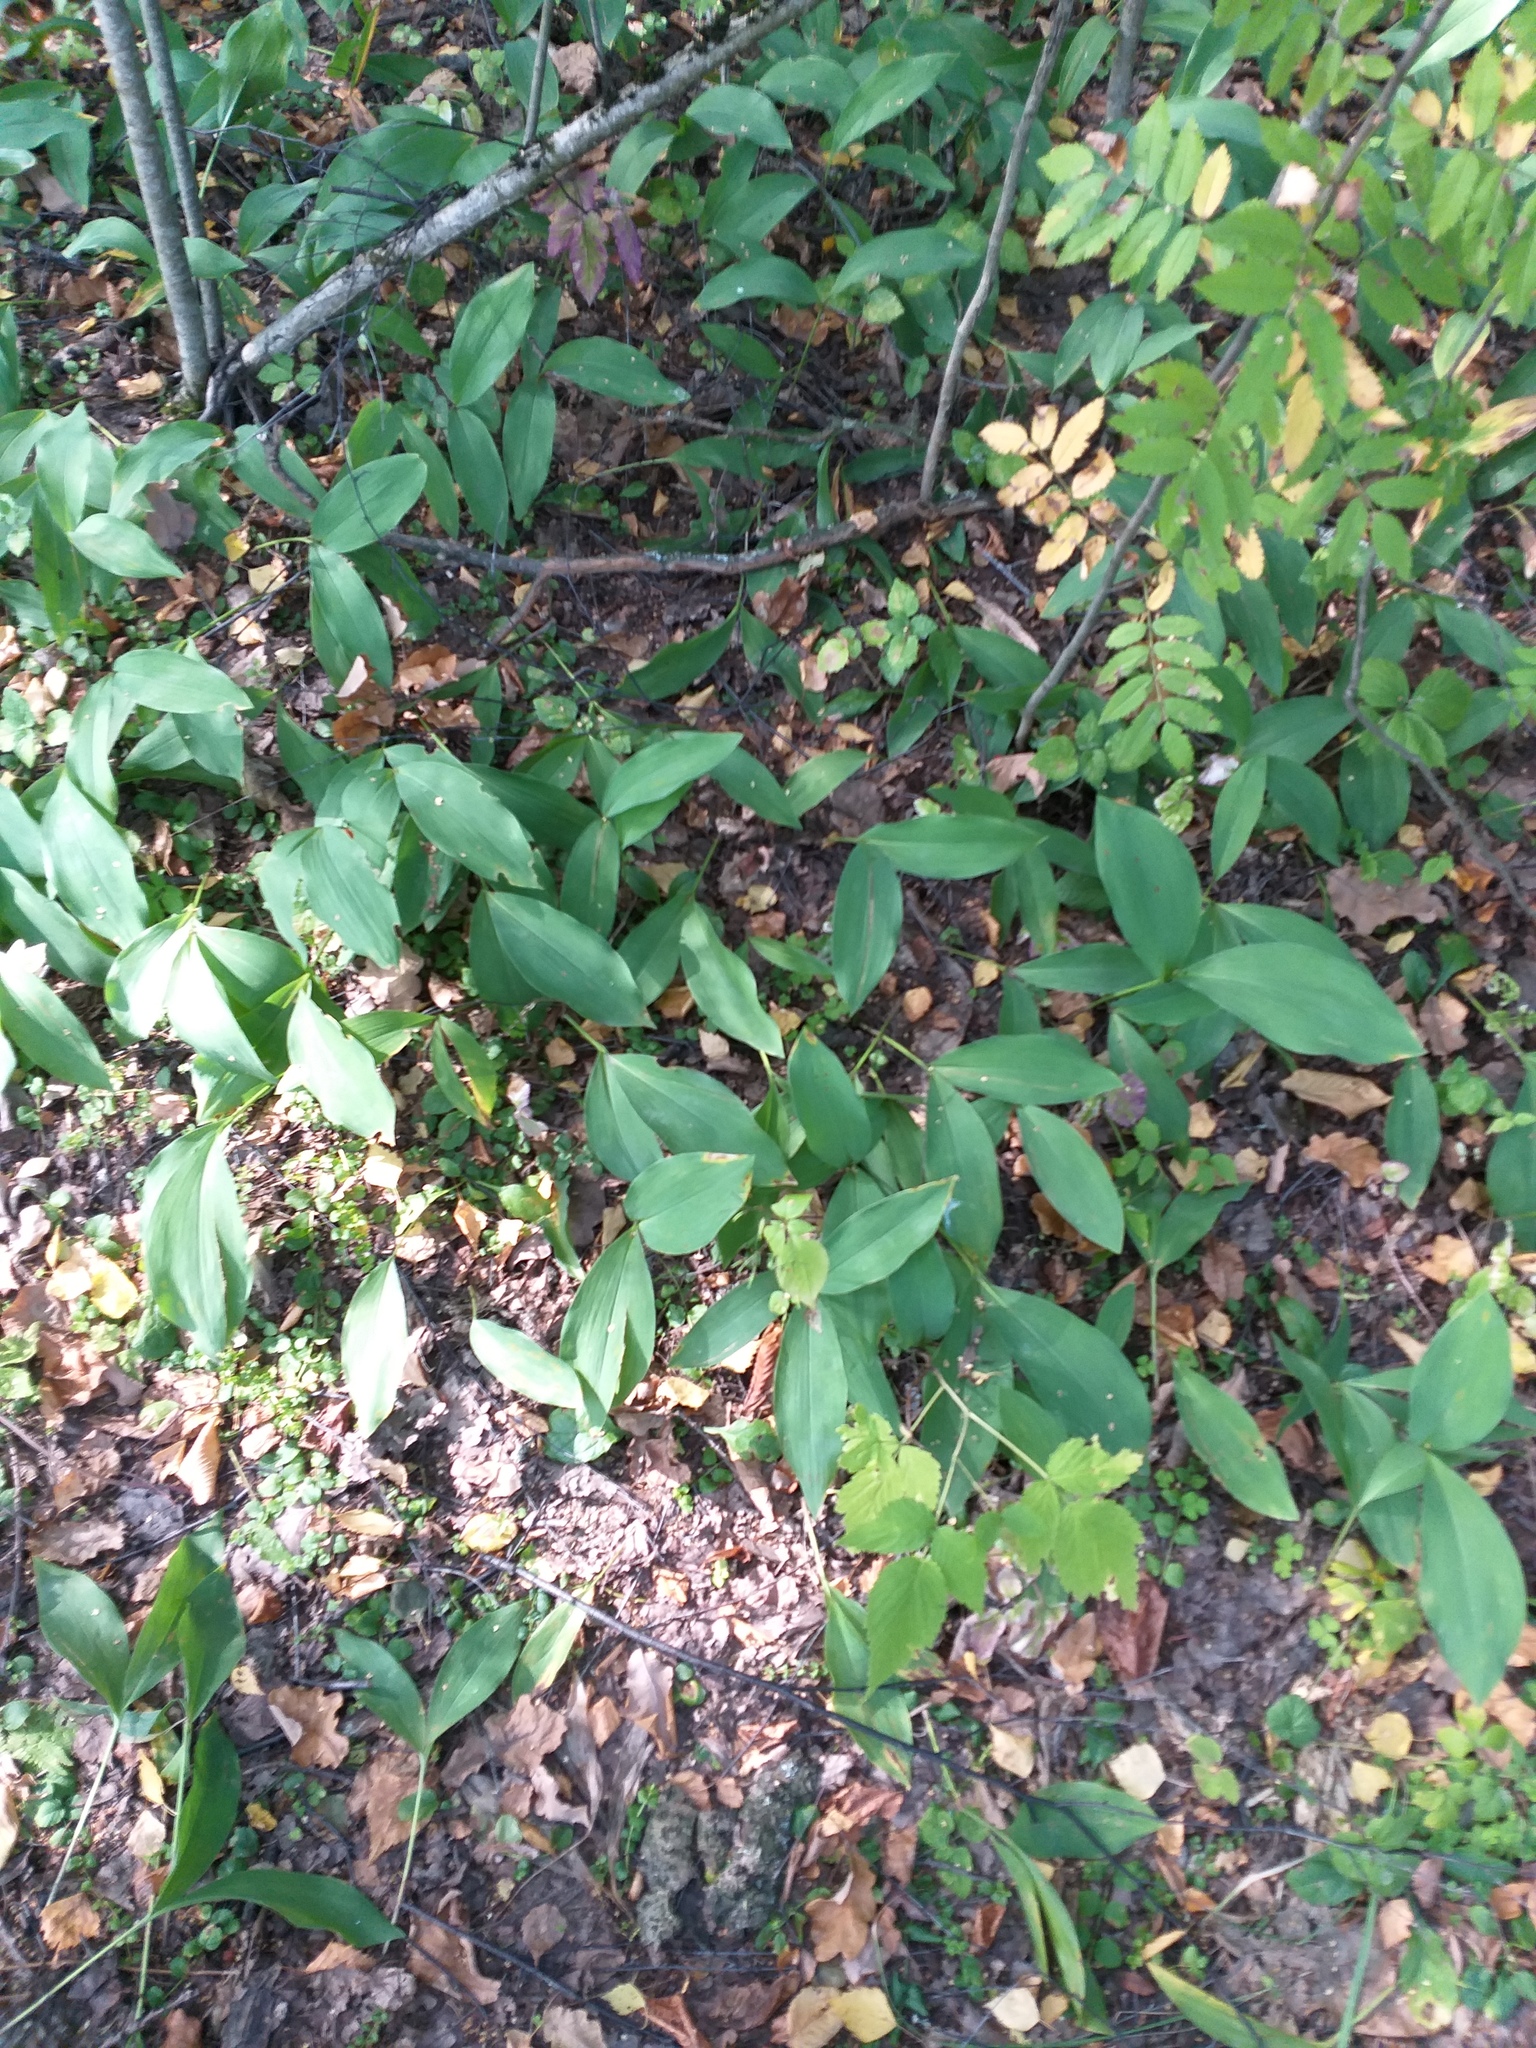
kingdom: Plantae
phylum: Tracheophyta
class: Liliopsida
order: Asparagales
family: Asparagaceae
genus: Convallaria
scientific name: Convallaria majalis
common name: Lily-of-the-valley
